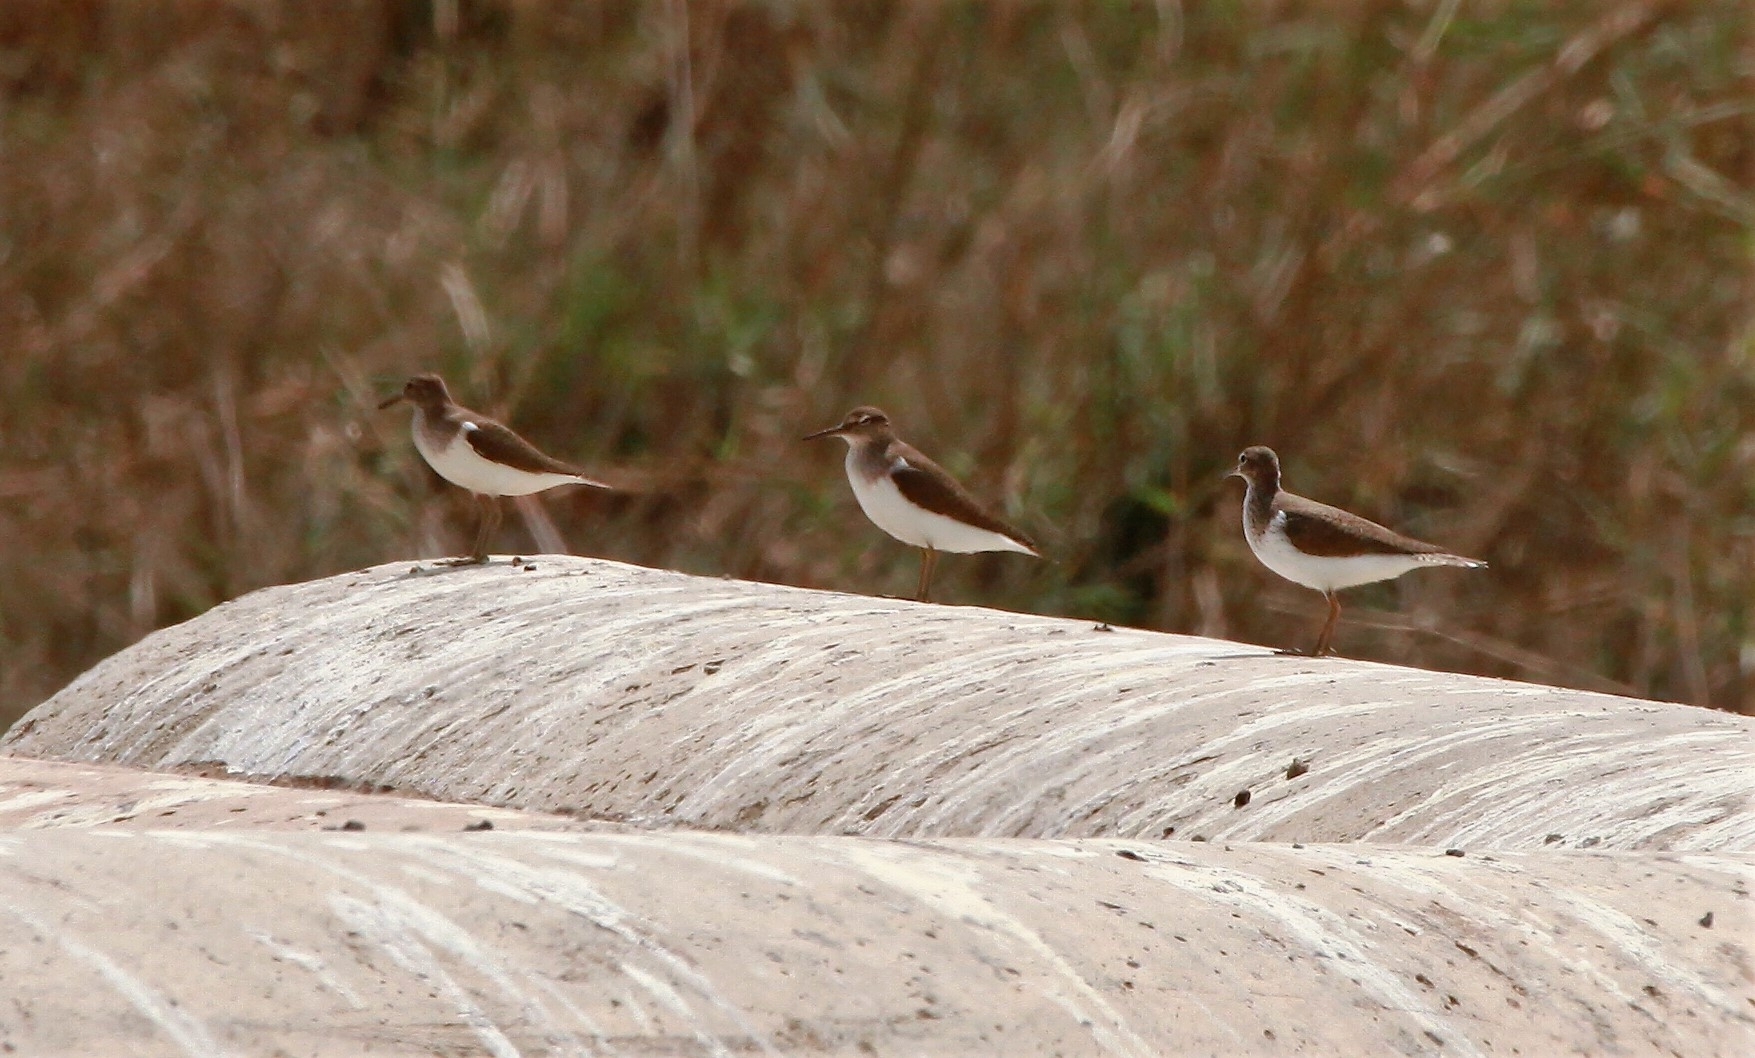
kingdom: Animalia
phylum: Chordata
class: Aves
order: Charadriiformes
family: Scolopacidae
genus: Actitis
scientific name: Actitis hypoleucos
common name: Common sandpiper
